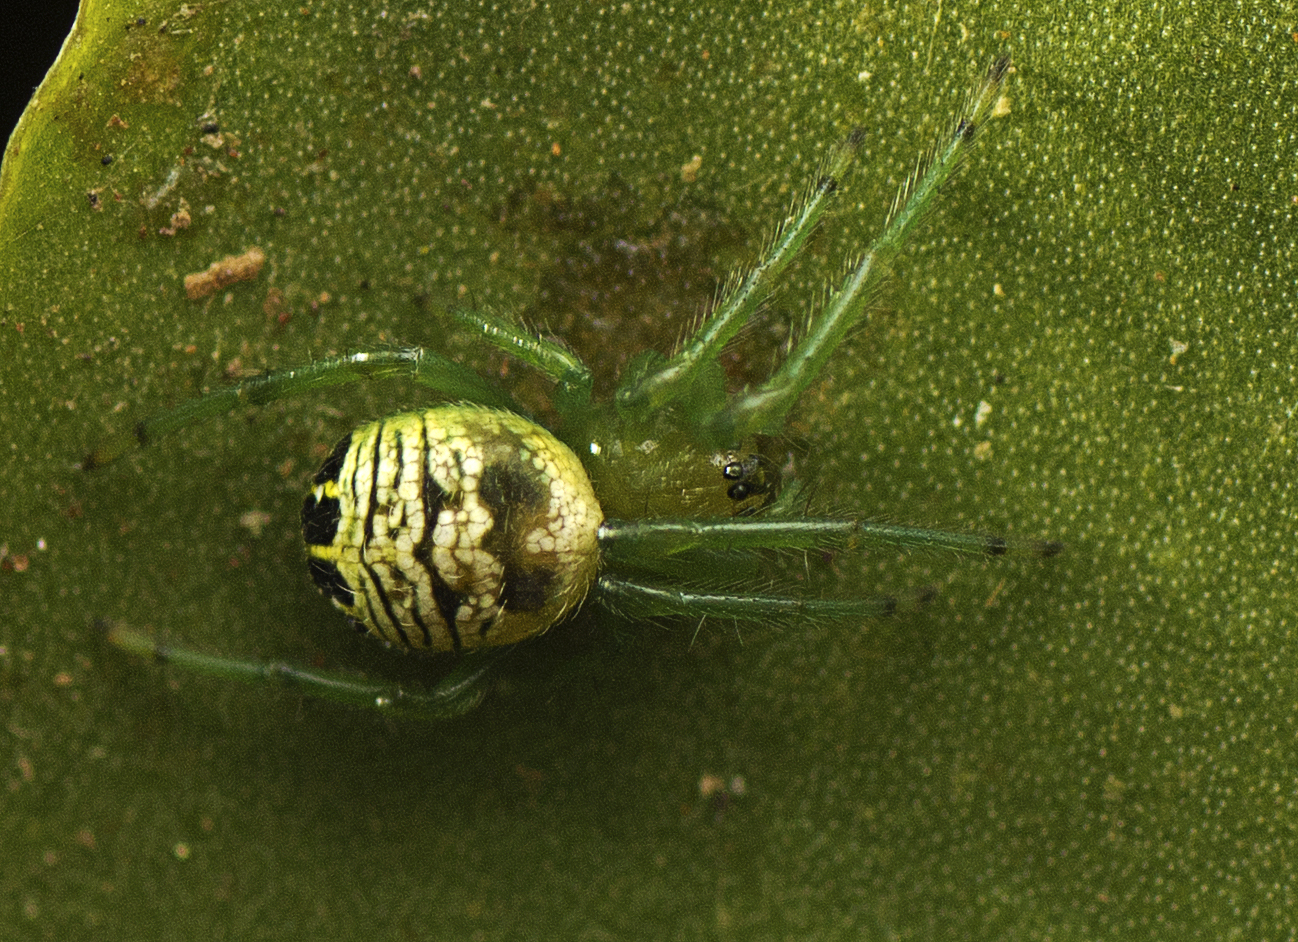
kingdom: Animalia
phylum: Arthropoda
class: Arachnida
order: Araneae
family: Araneidae
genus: Bijoaraneus
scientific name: Bijoaraneus praesignis
